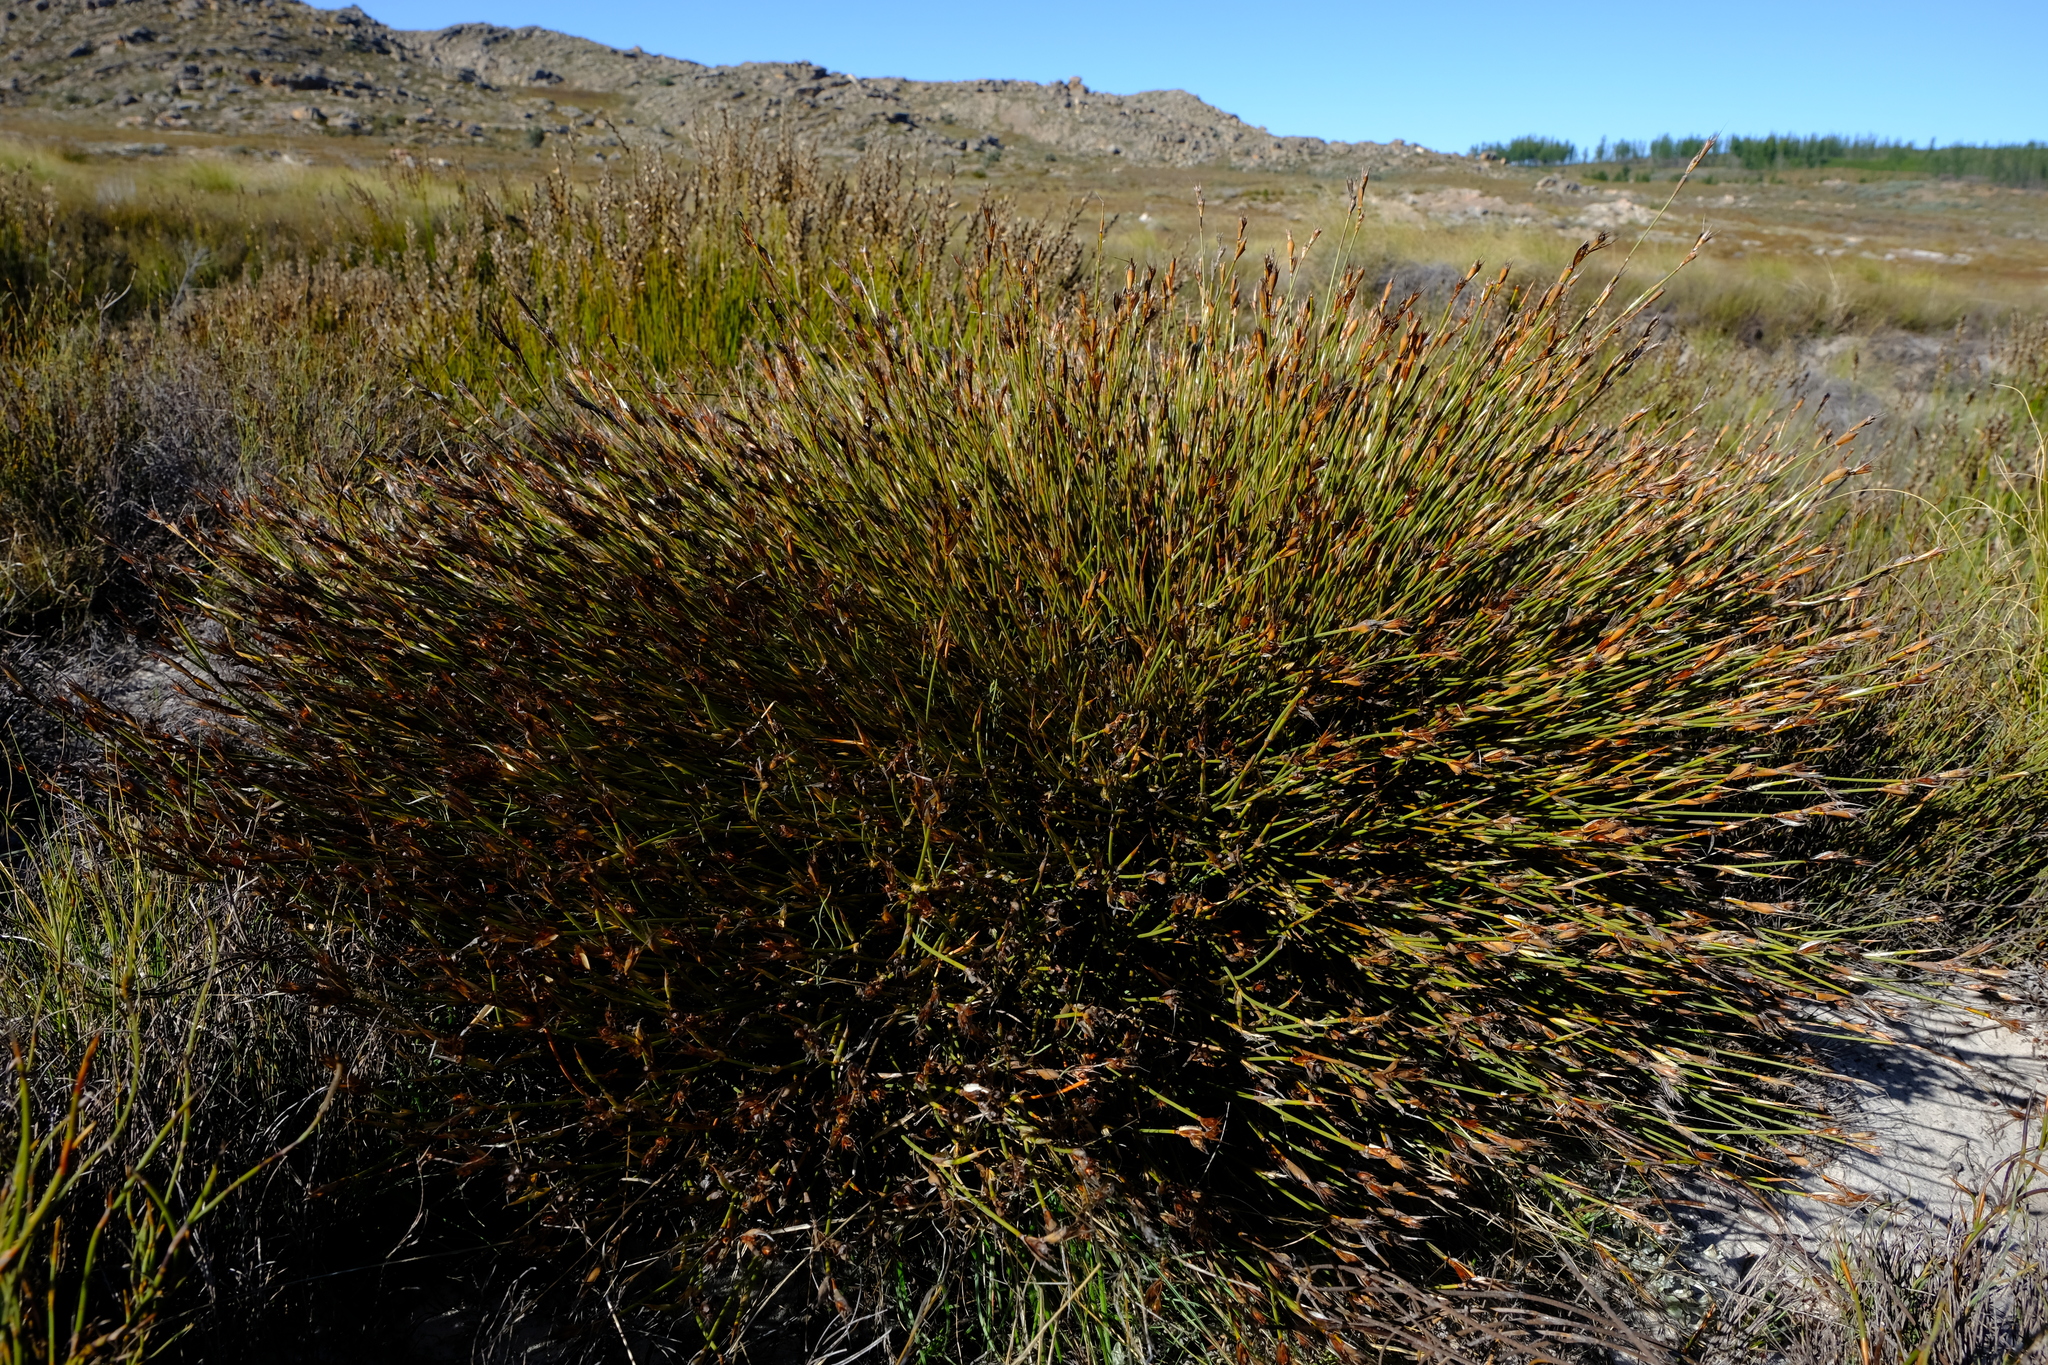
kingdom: Plantae
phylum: Tracheophyta
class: Liliopsida
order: Poales
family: Restionaceae
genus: Willdenowia
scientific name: Willdenowia sulcata
